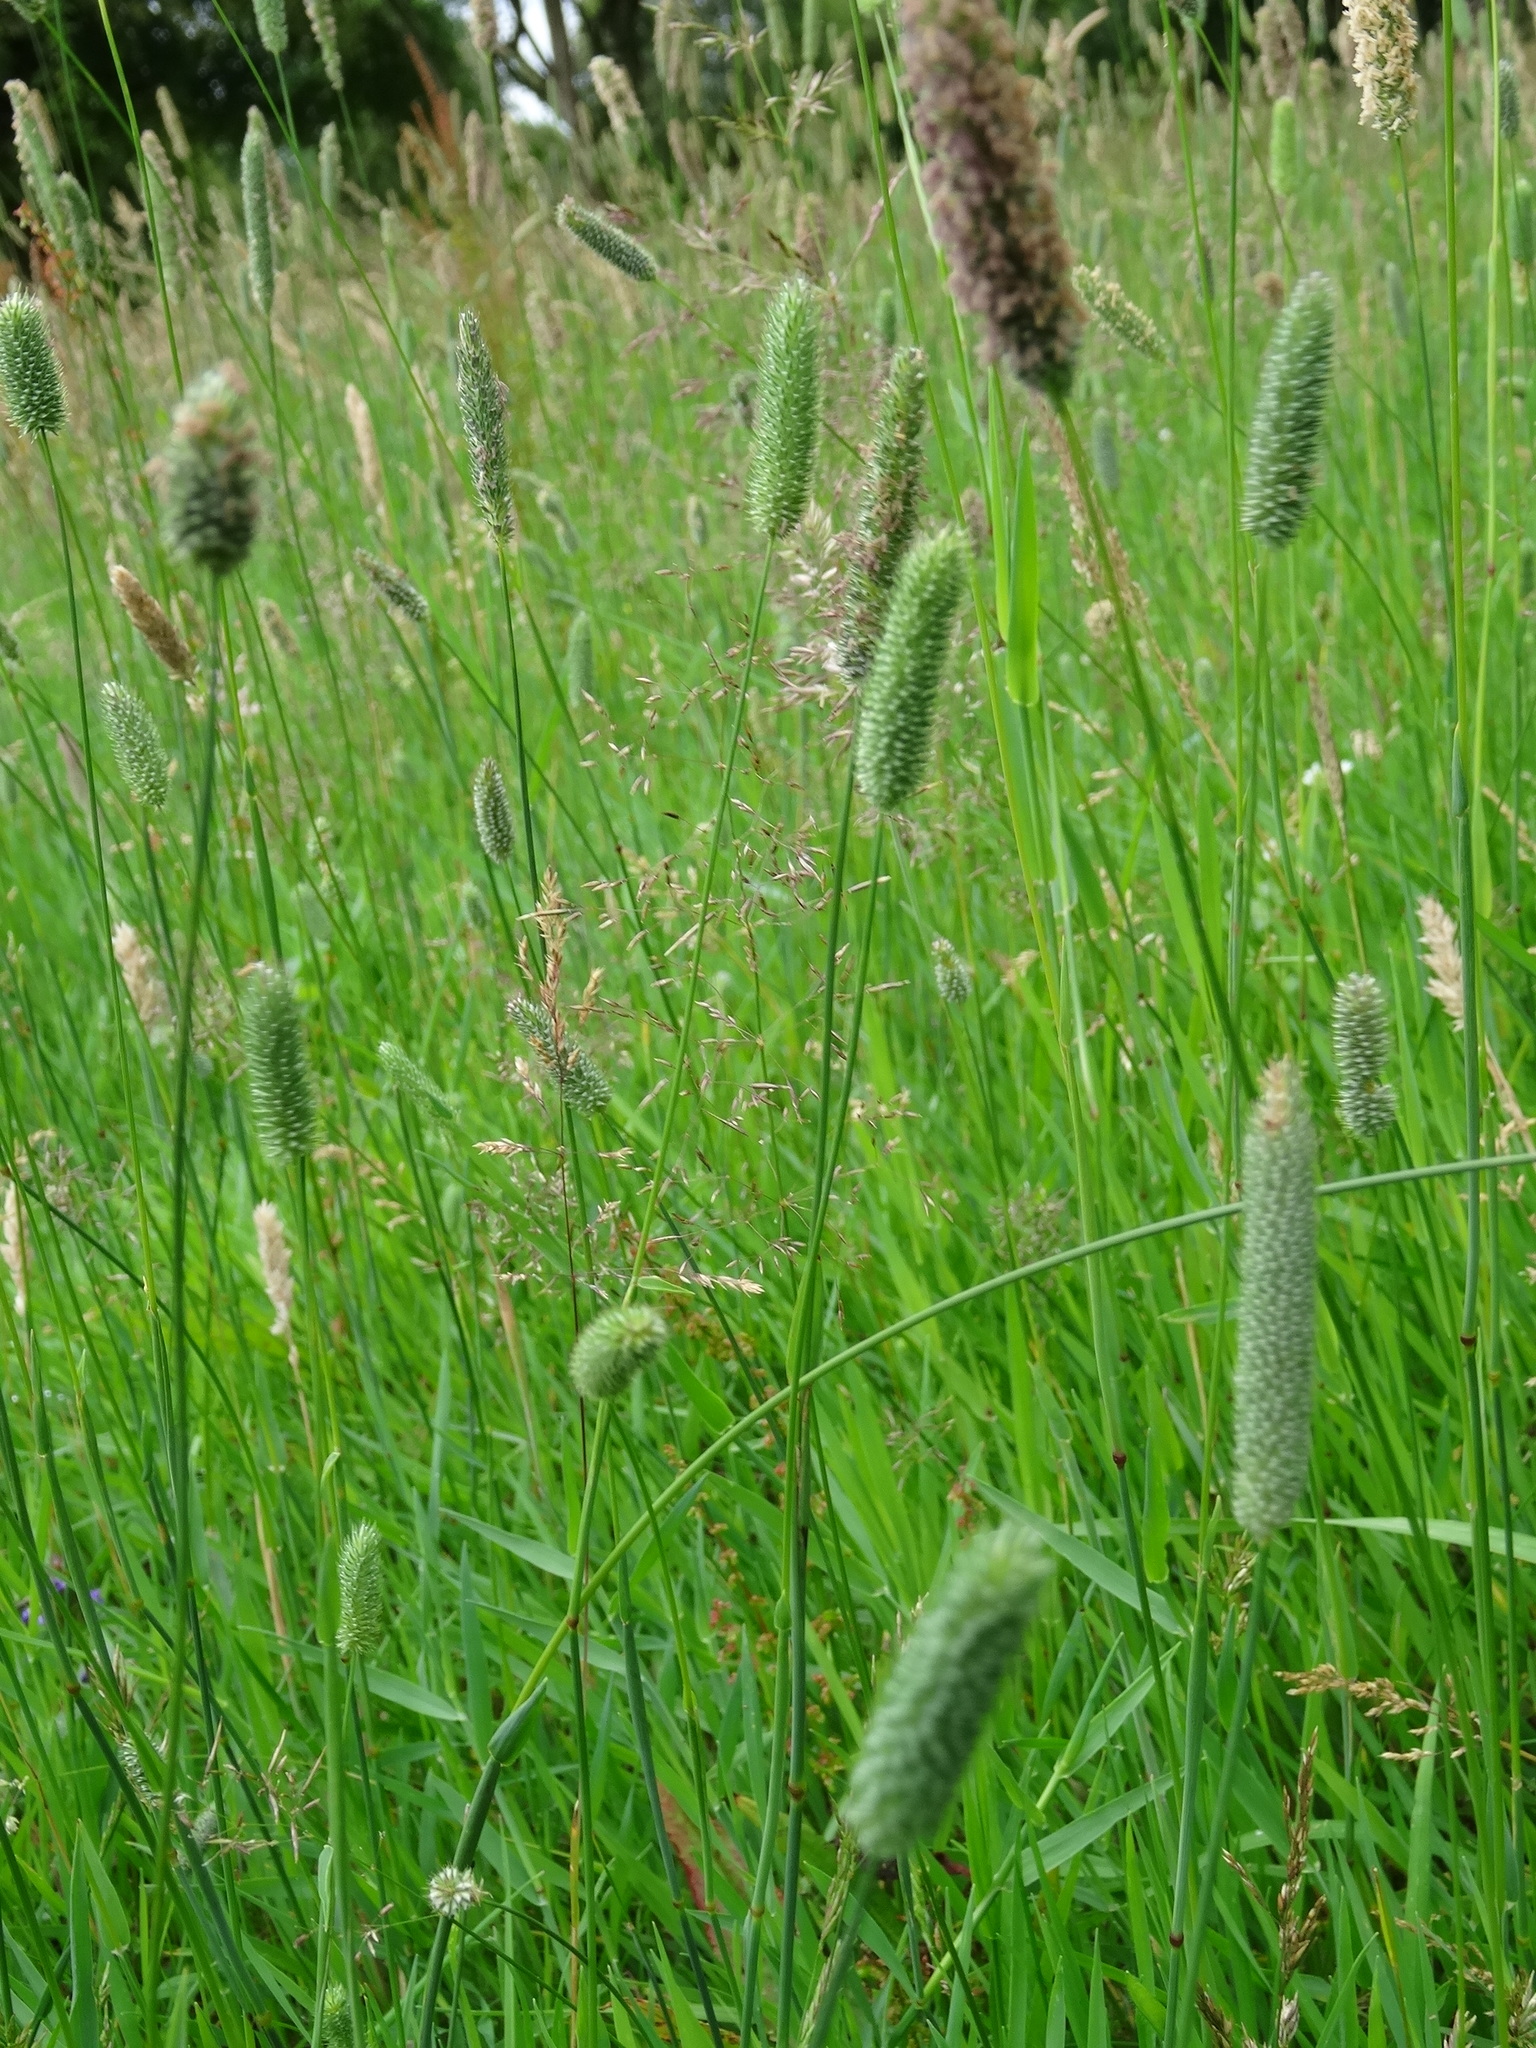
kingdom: Plantae
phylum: Tracheophyta
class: Liliopsida
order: Poales
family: Poaceae
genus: Phleum
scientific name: Phleum pratense
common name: Timothy grass
